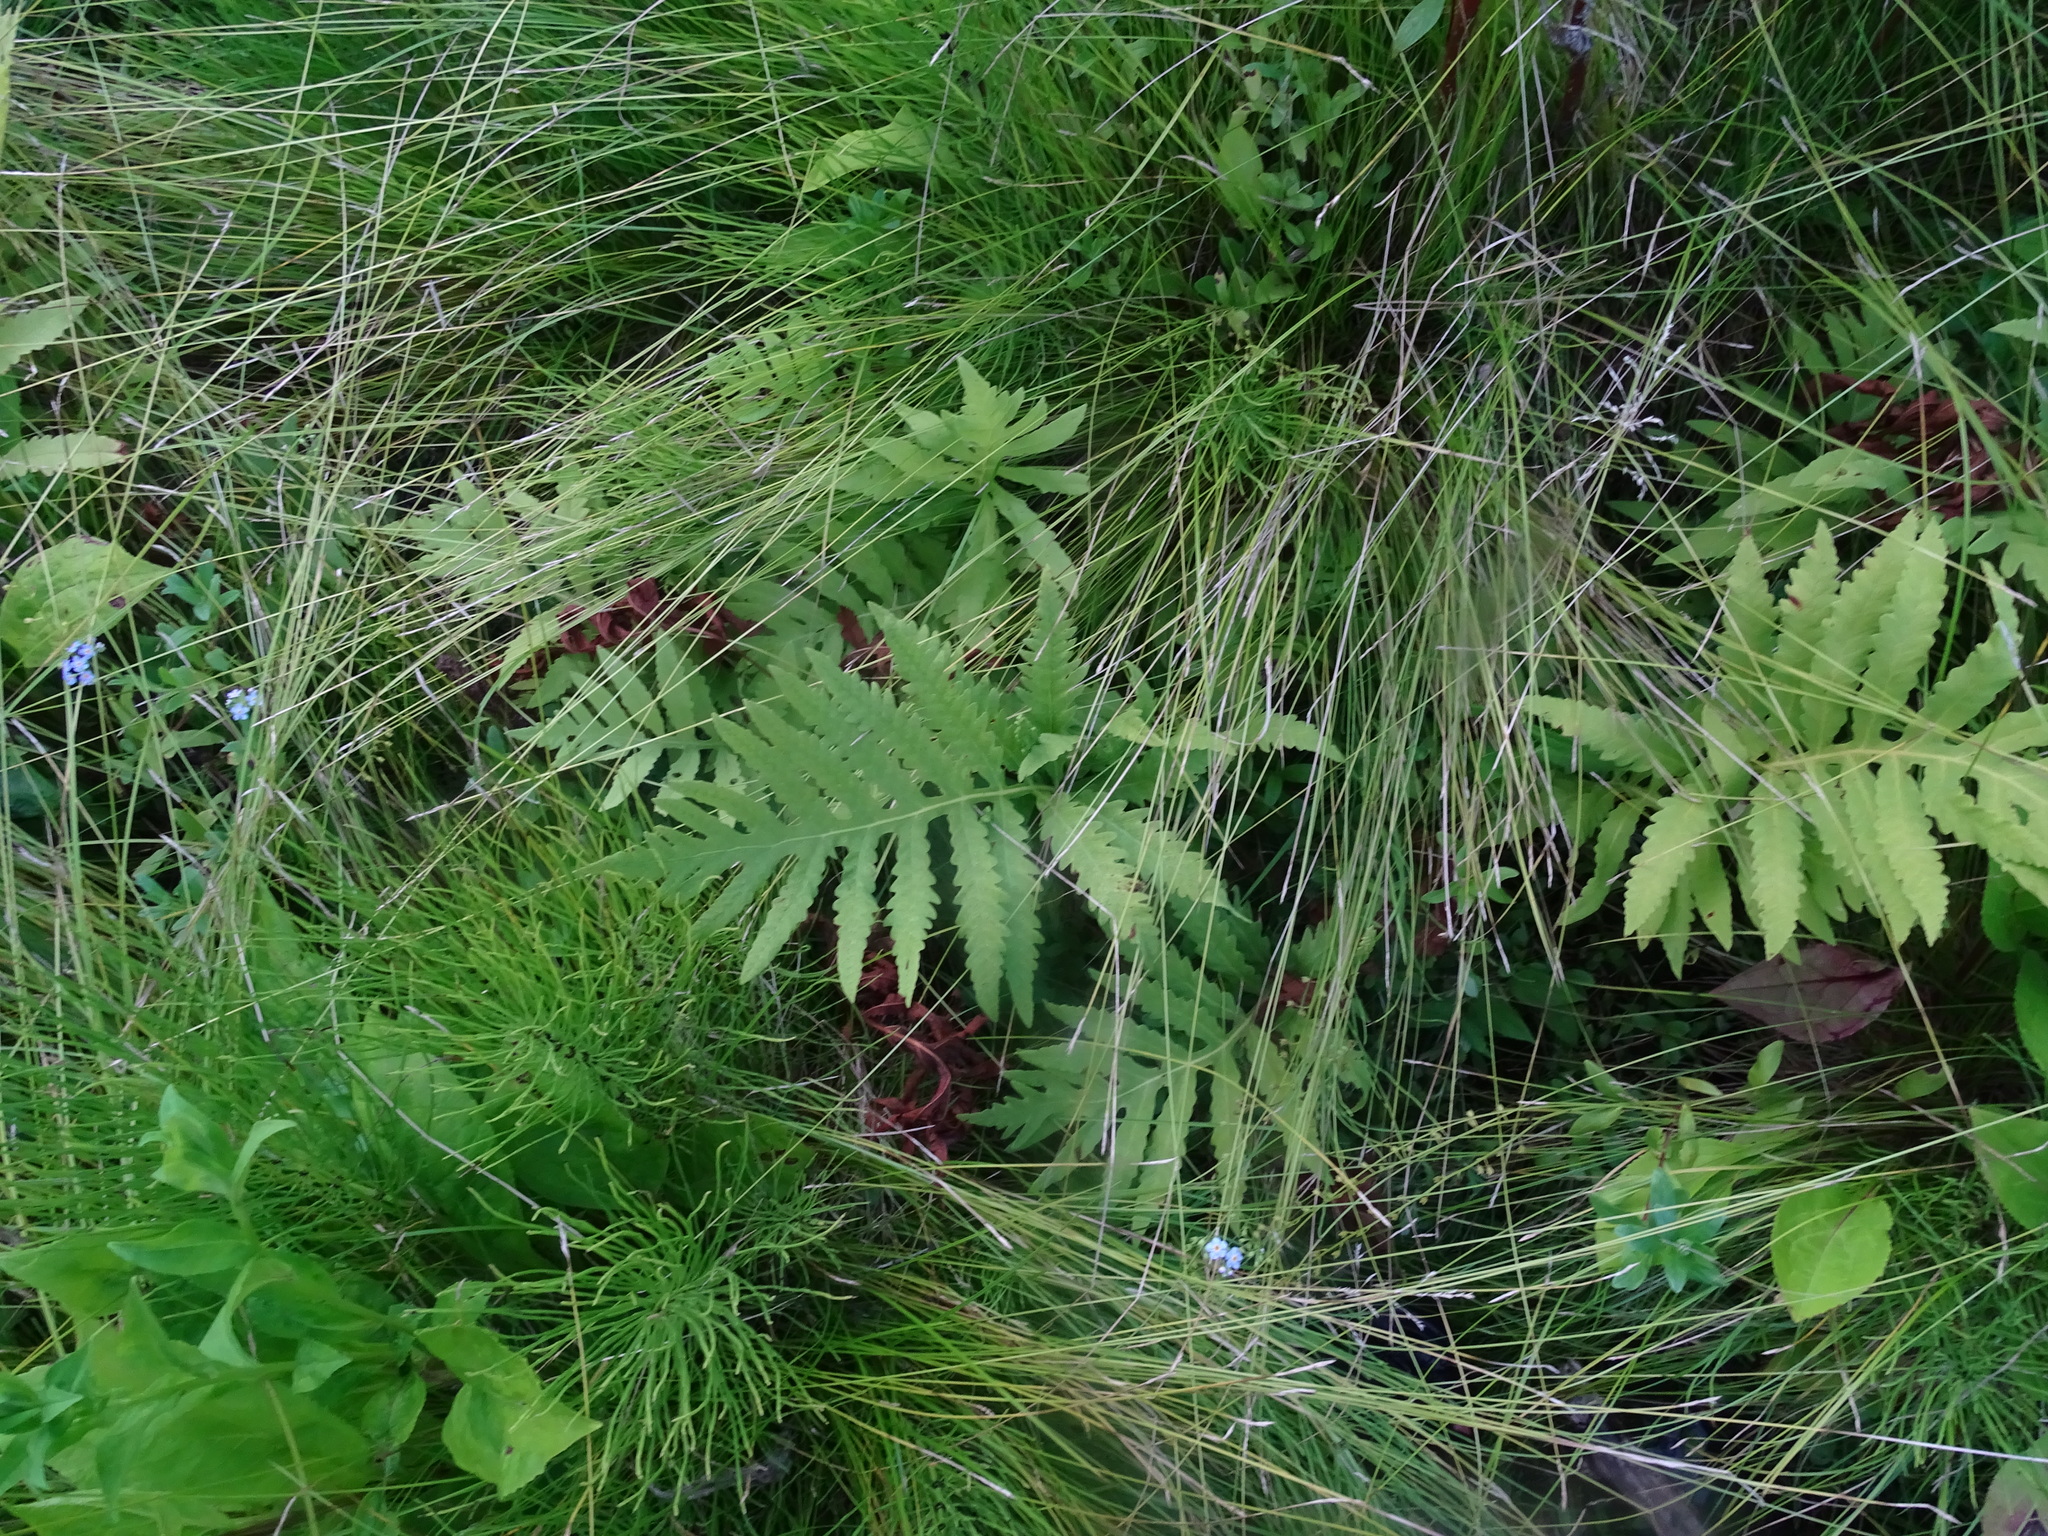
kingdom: Plantae
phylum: Tracheophyta
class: Polypodiopsida
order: Polypodiales
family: Onocleaceae
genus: Onoclea
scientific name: Onoclea sensibilis
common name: Sensitive fern
